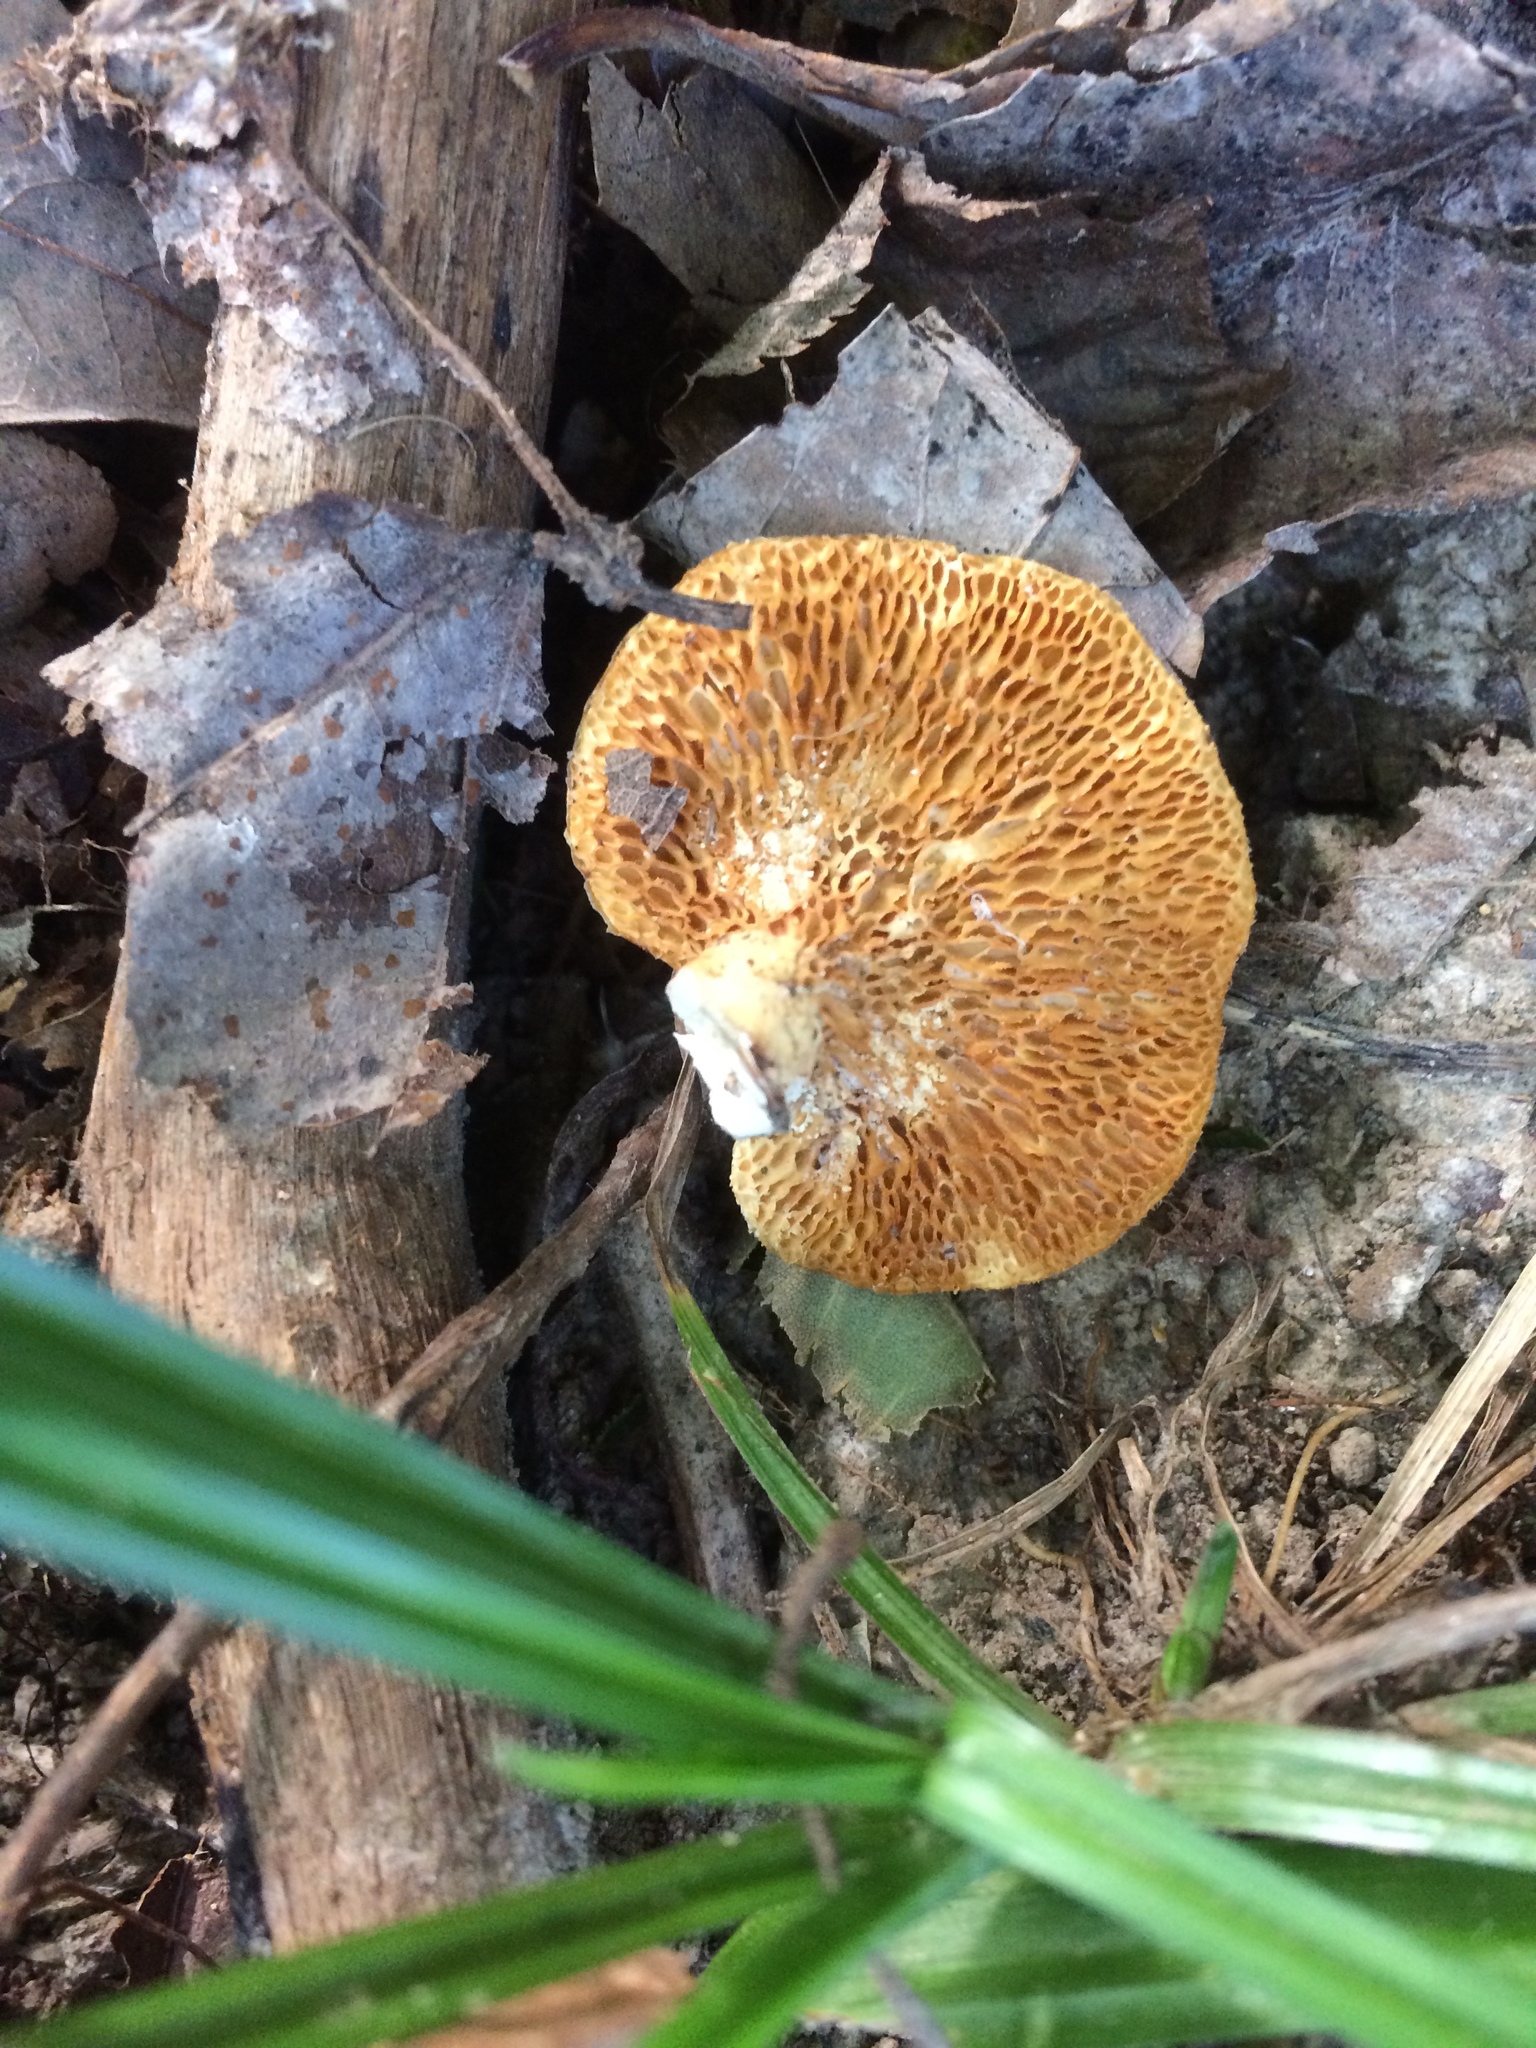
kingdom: Fungi
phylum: Basidiomycota
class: Agaricomycetes
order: Polyporales
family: Polyporaceae
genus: Neofavolus
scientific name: Neofavolus alveolaris
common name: Hexagonal-pored polypore
